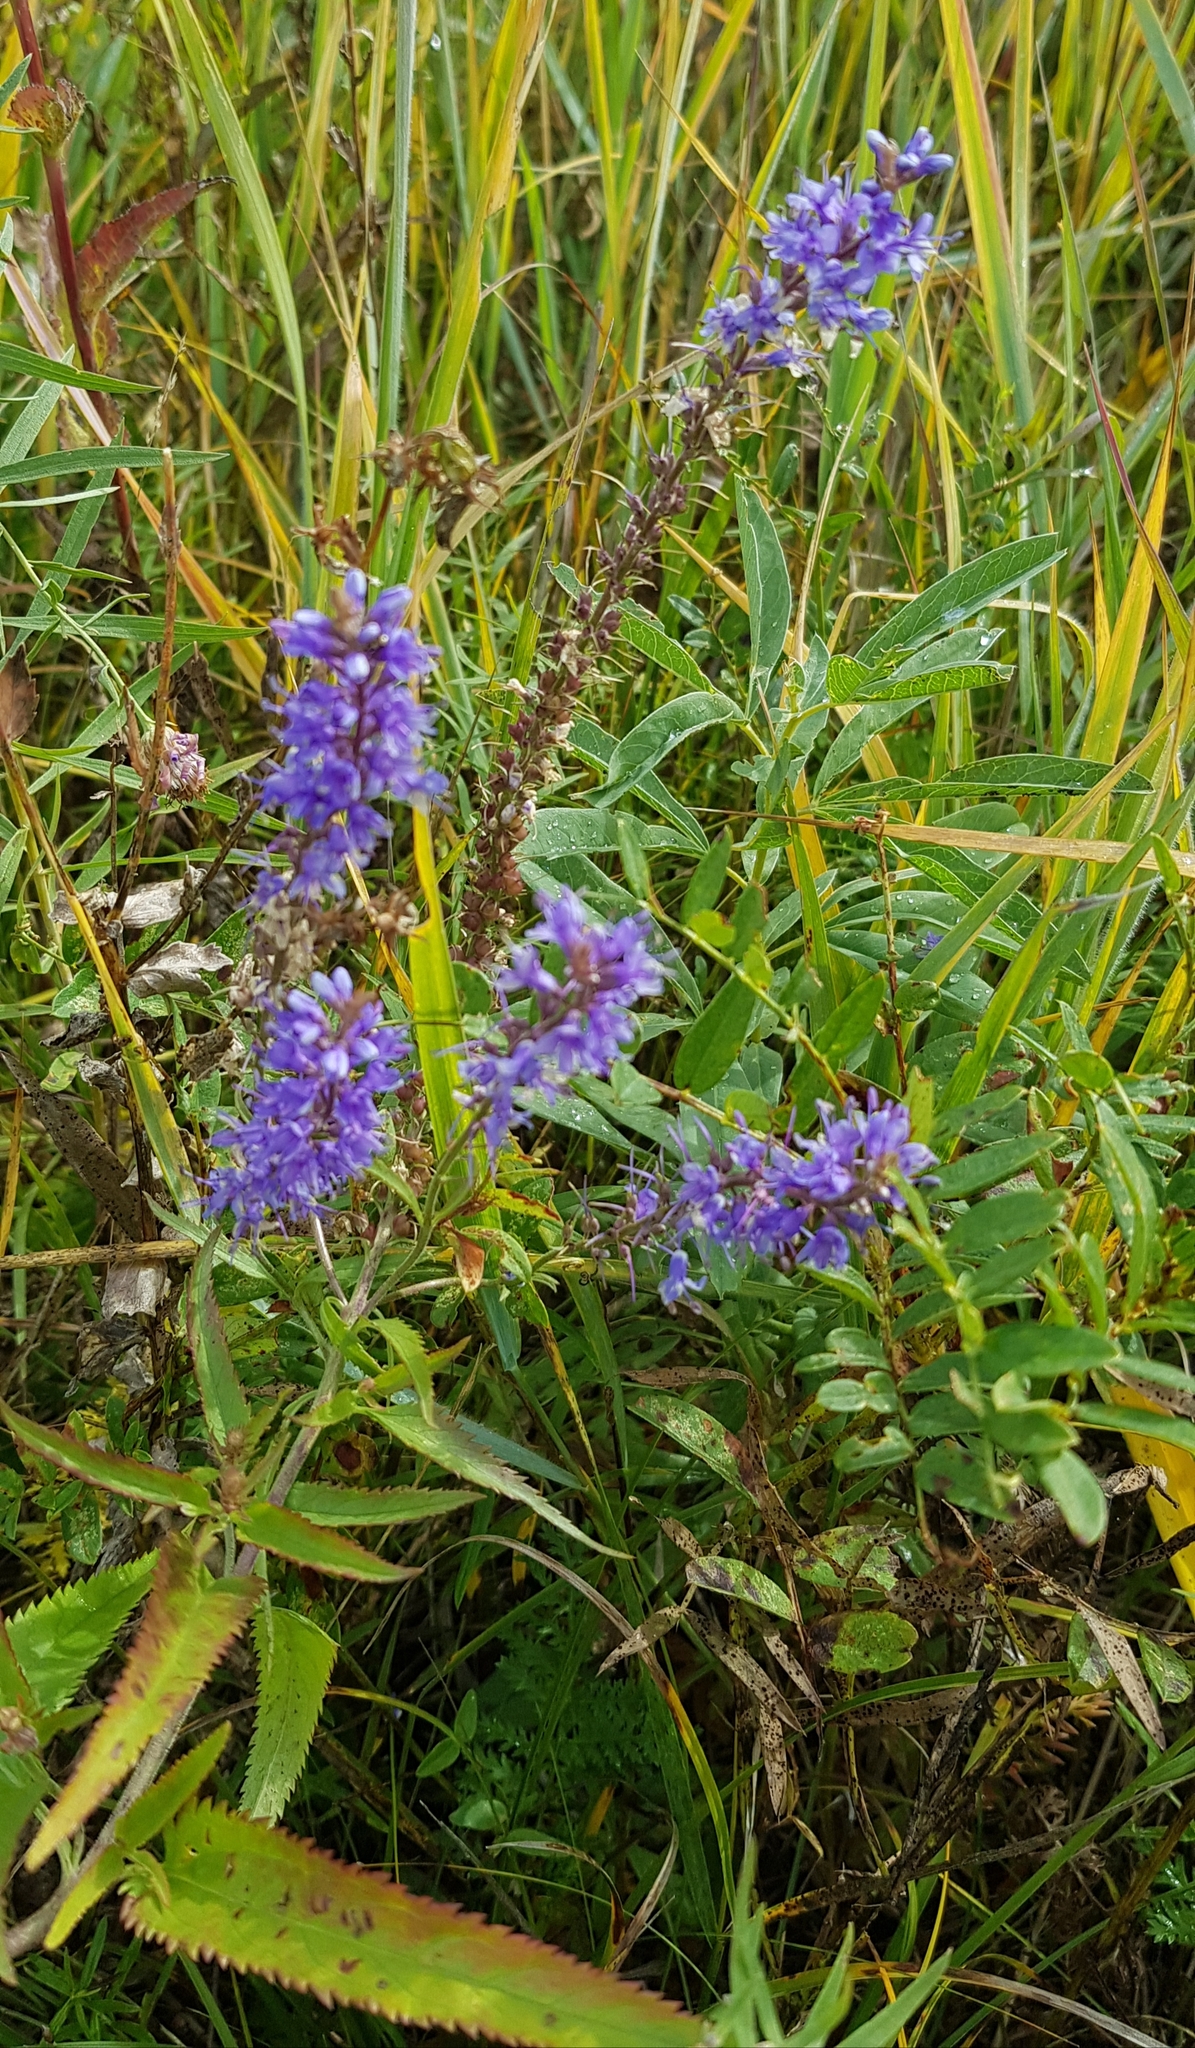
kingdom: Plantae
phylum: Tracheophyta
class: Magnoliopsida
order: Lamiales
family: Plantaginaceae
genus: Veronica
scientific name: Veronica longifolia
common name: Garden speedwell
